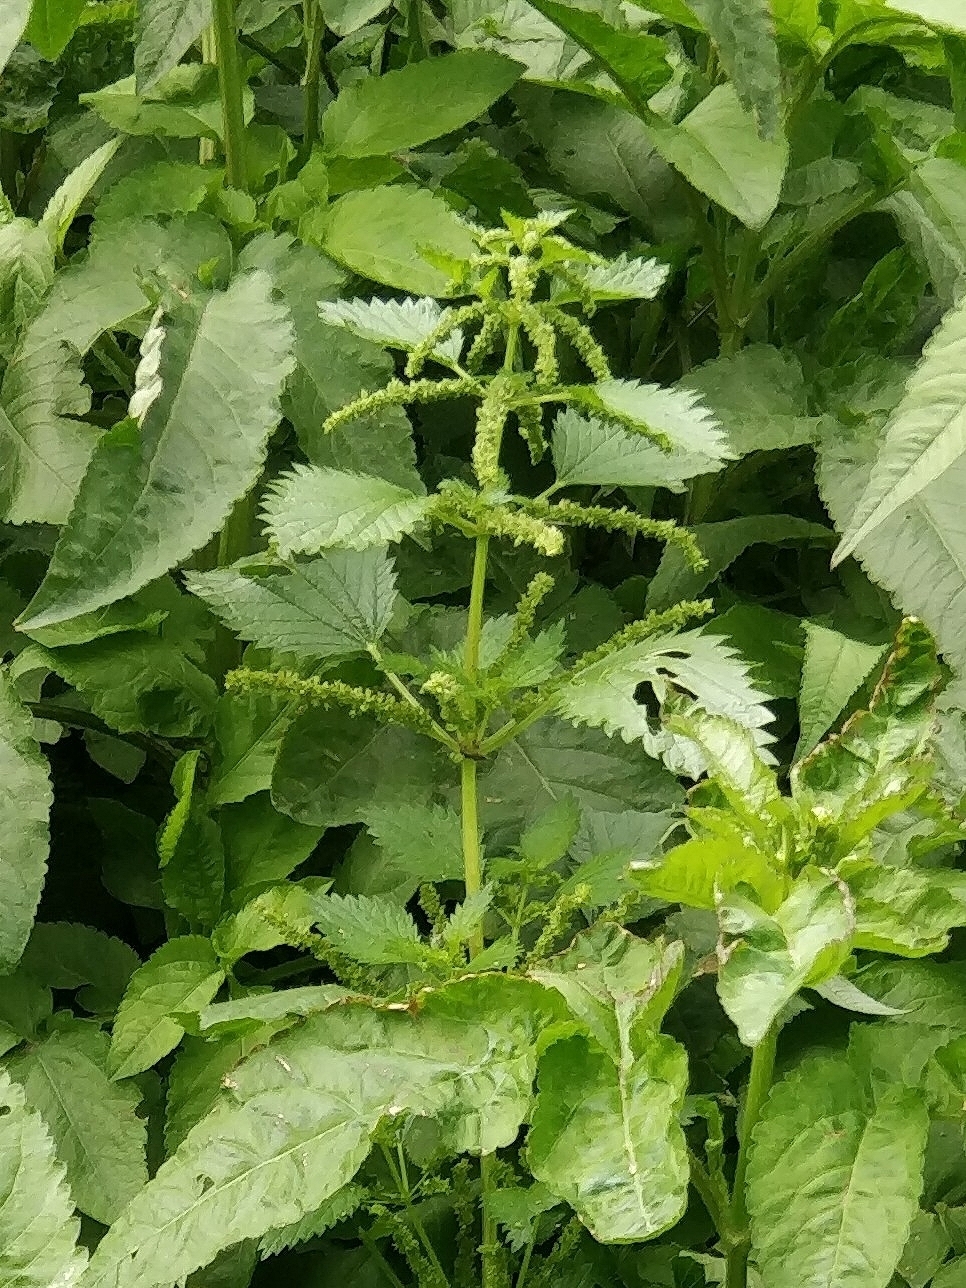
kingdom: Plantae
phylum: Tracheophyta
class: Magnoliopsida
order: Rosales
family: Urticaceae
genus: Urtica
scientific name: Urtica membranacea
